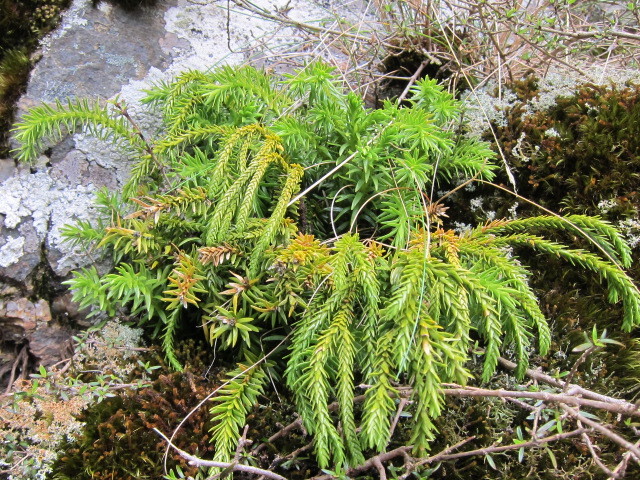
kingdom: Plantae
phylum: Tracheophyta
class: Lycopodiopsida
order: Lycopodiales
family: Lycopodiaceae
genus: Phlegmariurus
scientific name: Phlegmariurus varius
